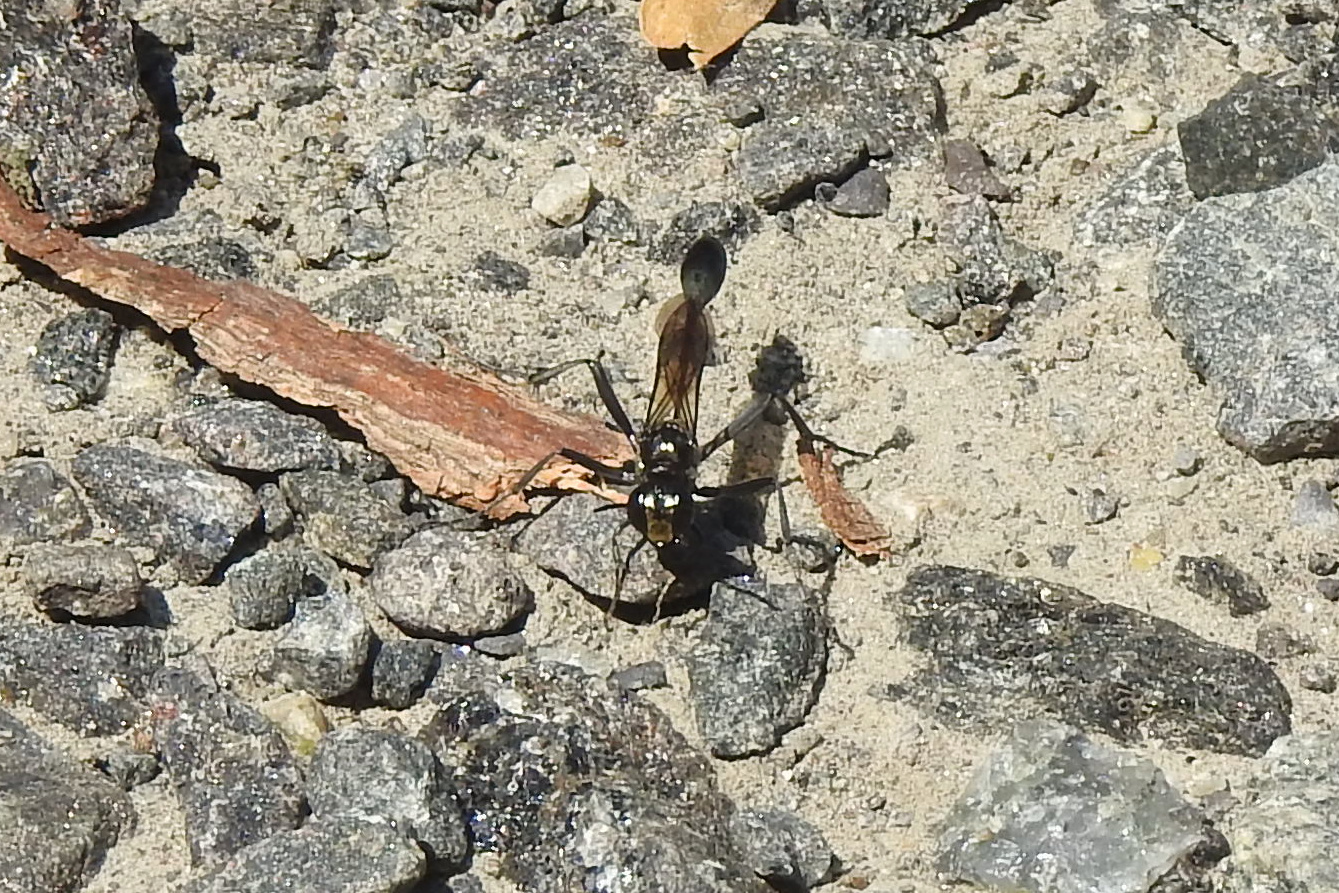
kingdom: Animalia
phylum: Arthropoda
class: Insecta
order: Hymenoptera
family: Sphecidae
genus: Eremnophila
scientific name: Eremnophila aureonotata
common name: Gold-marked thread-waisted wasp
